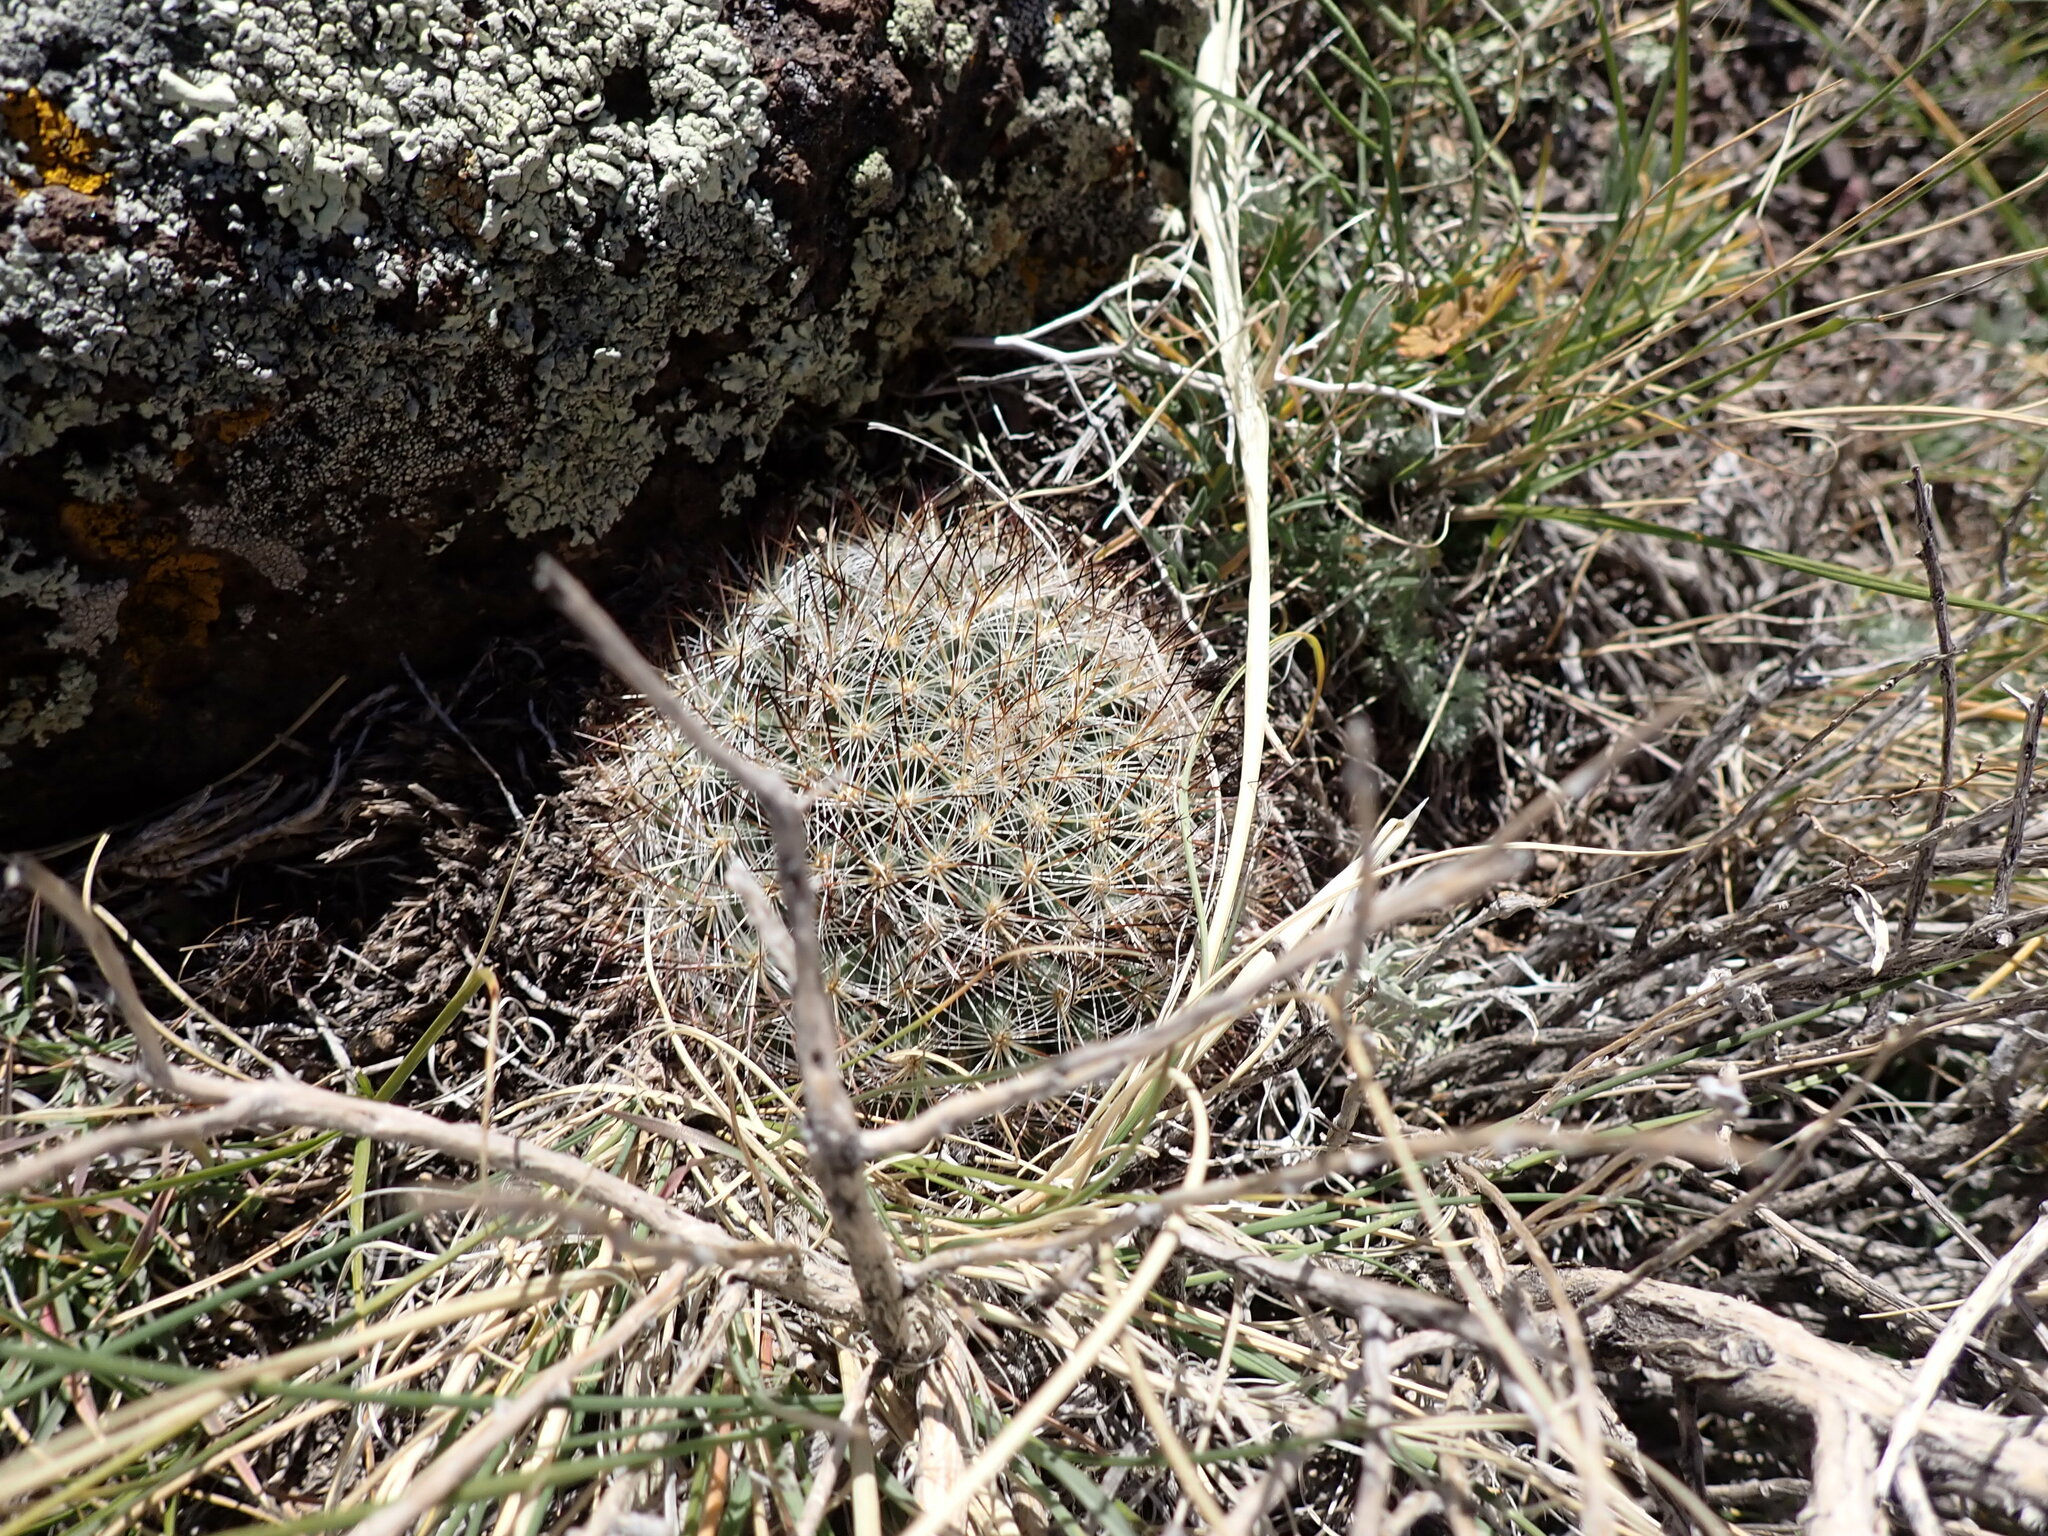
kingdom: Plantae
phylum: Tracheophyta
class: Magnoliopsida
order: Caryophyllales
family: Cactaceae
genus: Pediocactus
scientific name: Pediocactus simpsonii
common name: Simpson's hedgehog cactus
